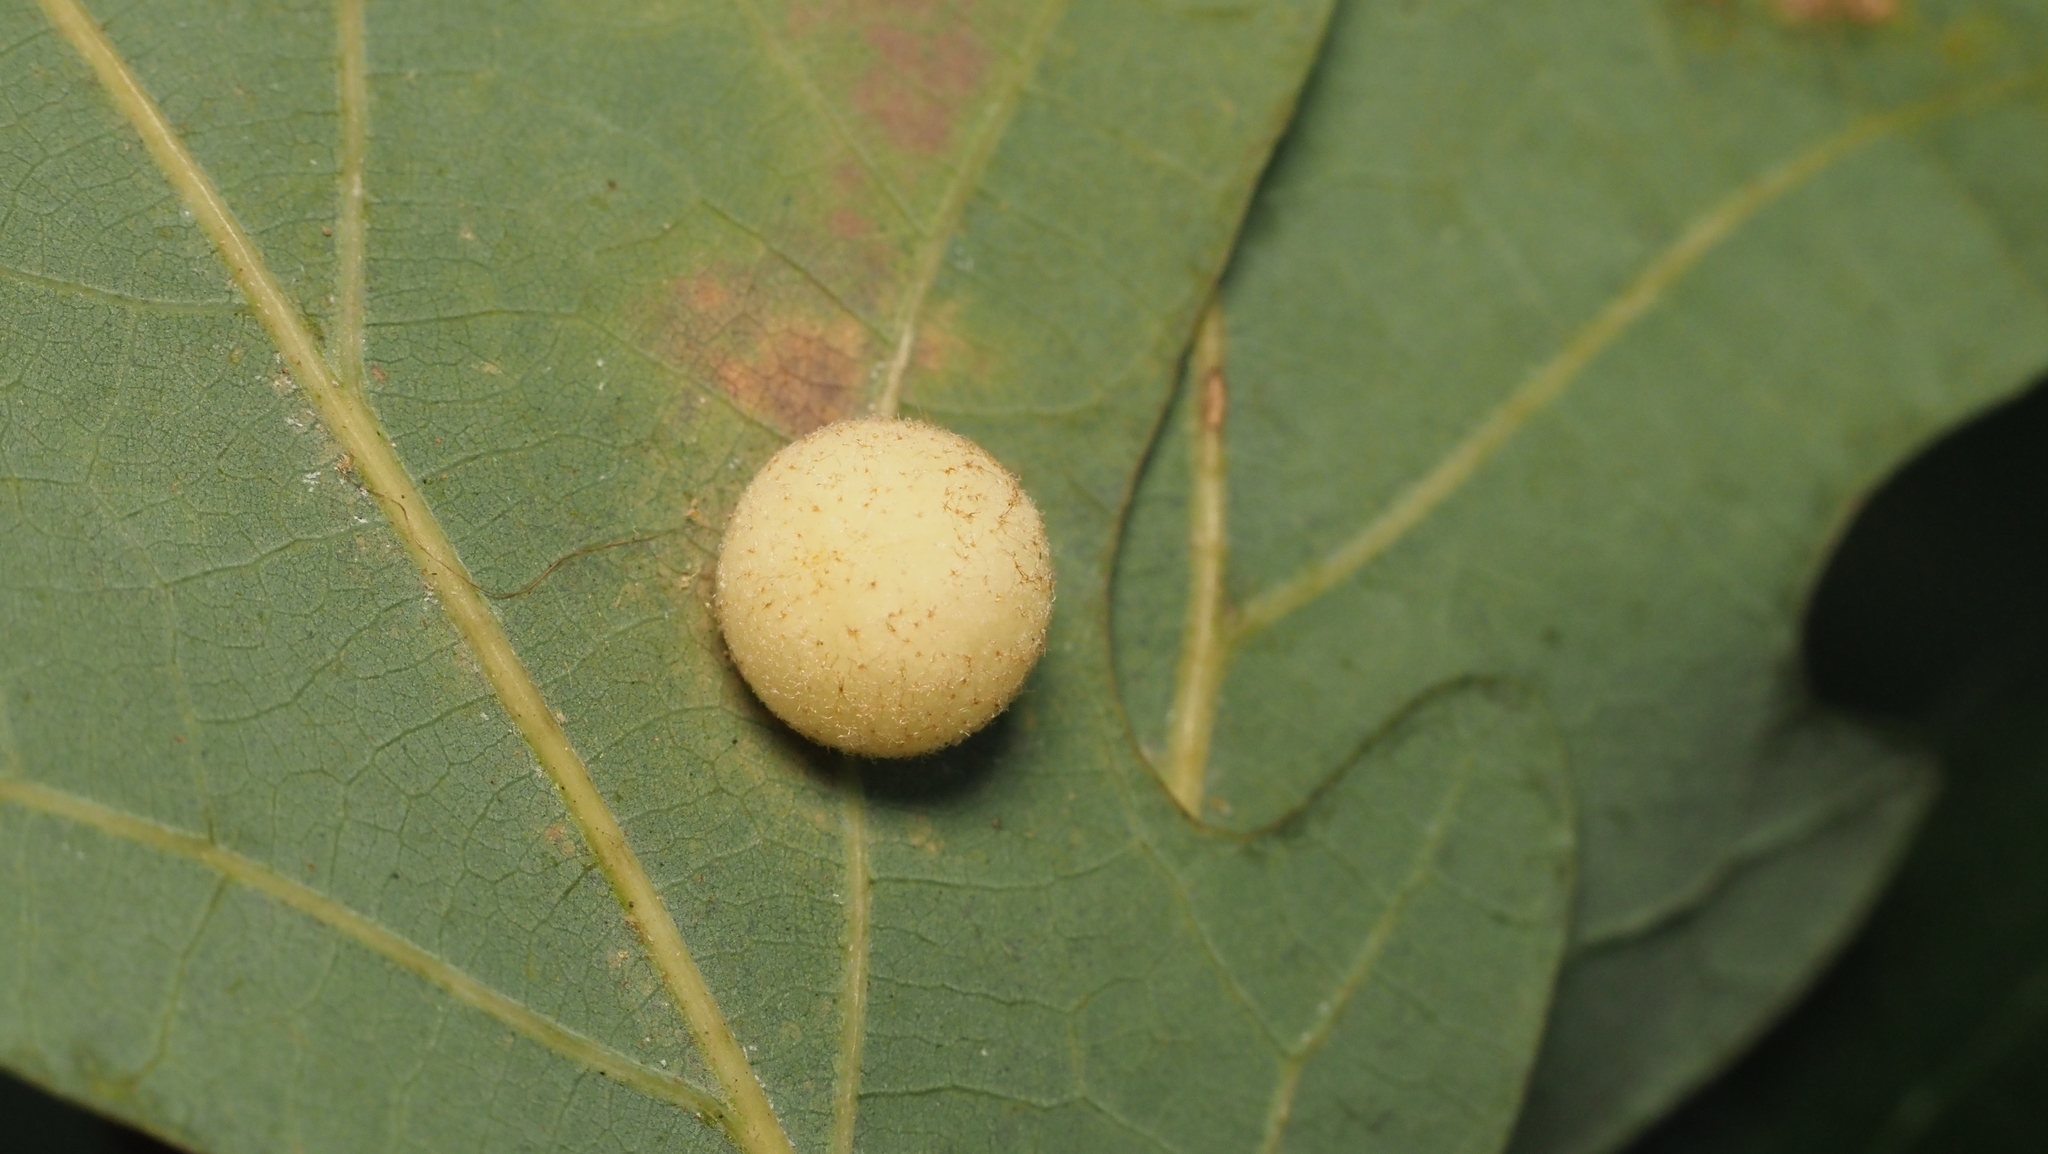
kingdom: Animalia
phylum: Arthropoda
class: Insecta
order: Hymenoptera
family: Cynipidae
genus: Philonix
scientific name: Philonix fulvicollis
